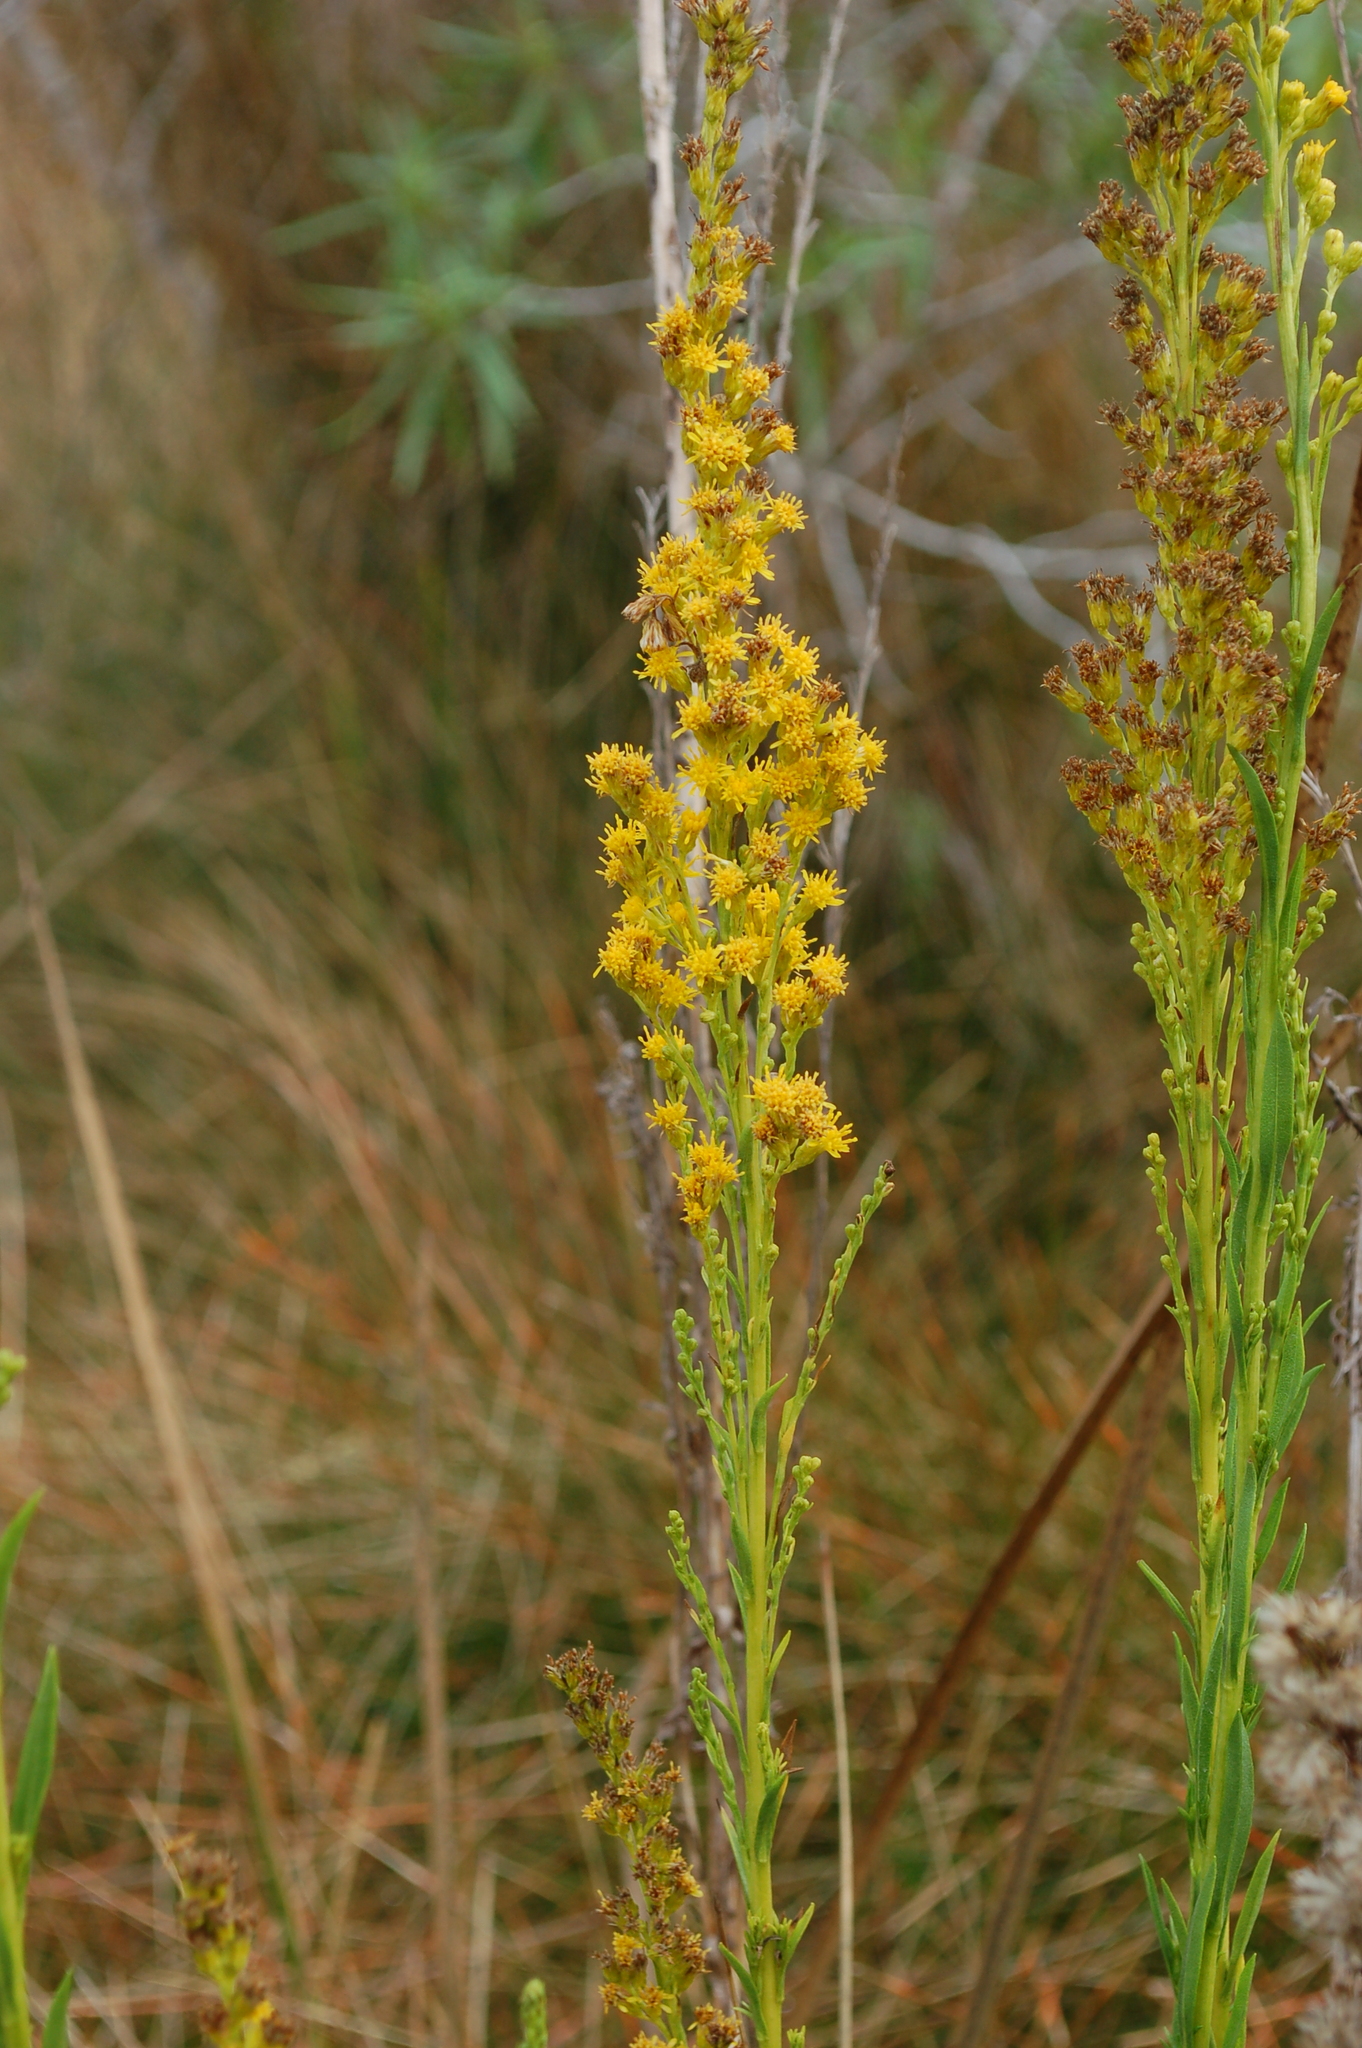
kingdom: Plantae
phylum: Tracheophyta
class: Magnoliopsida
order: Asterales
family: Asteraceae
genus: Solidago
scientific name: Solidago maya
